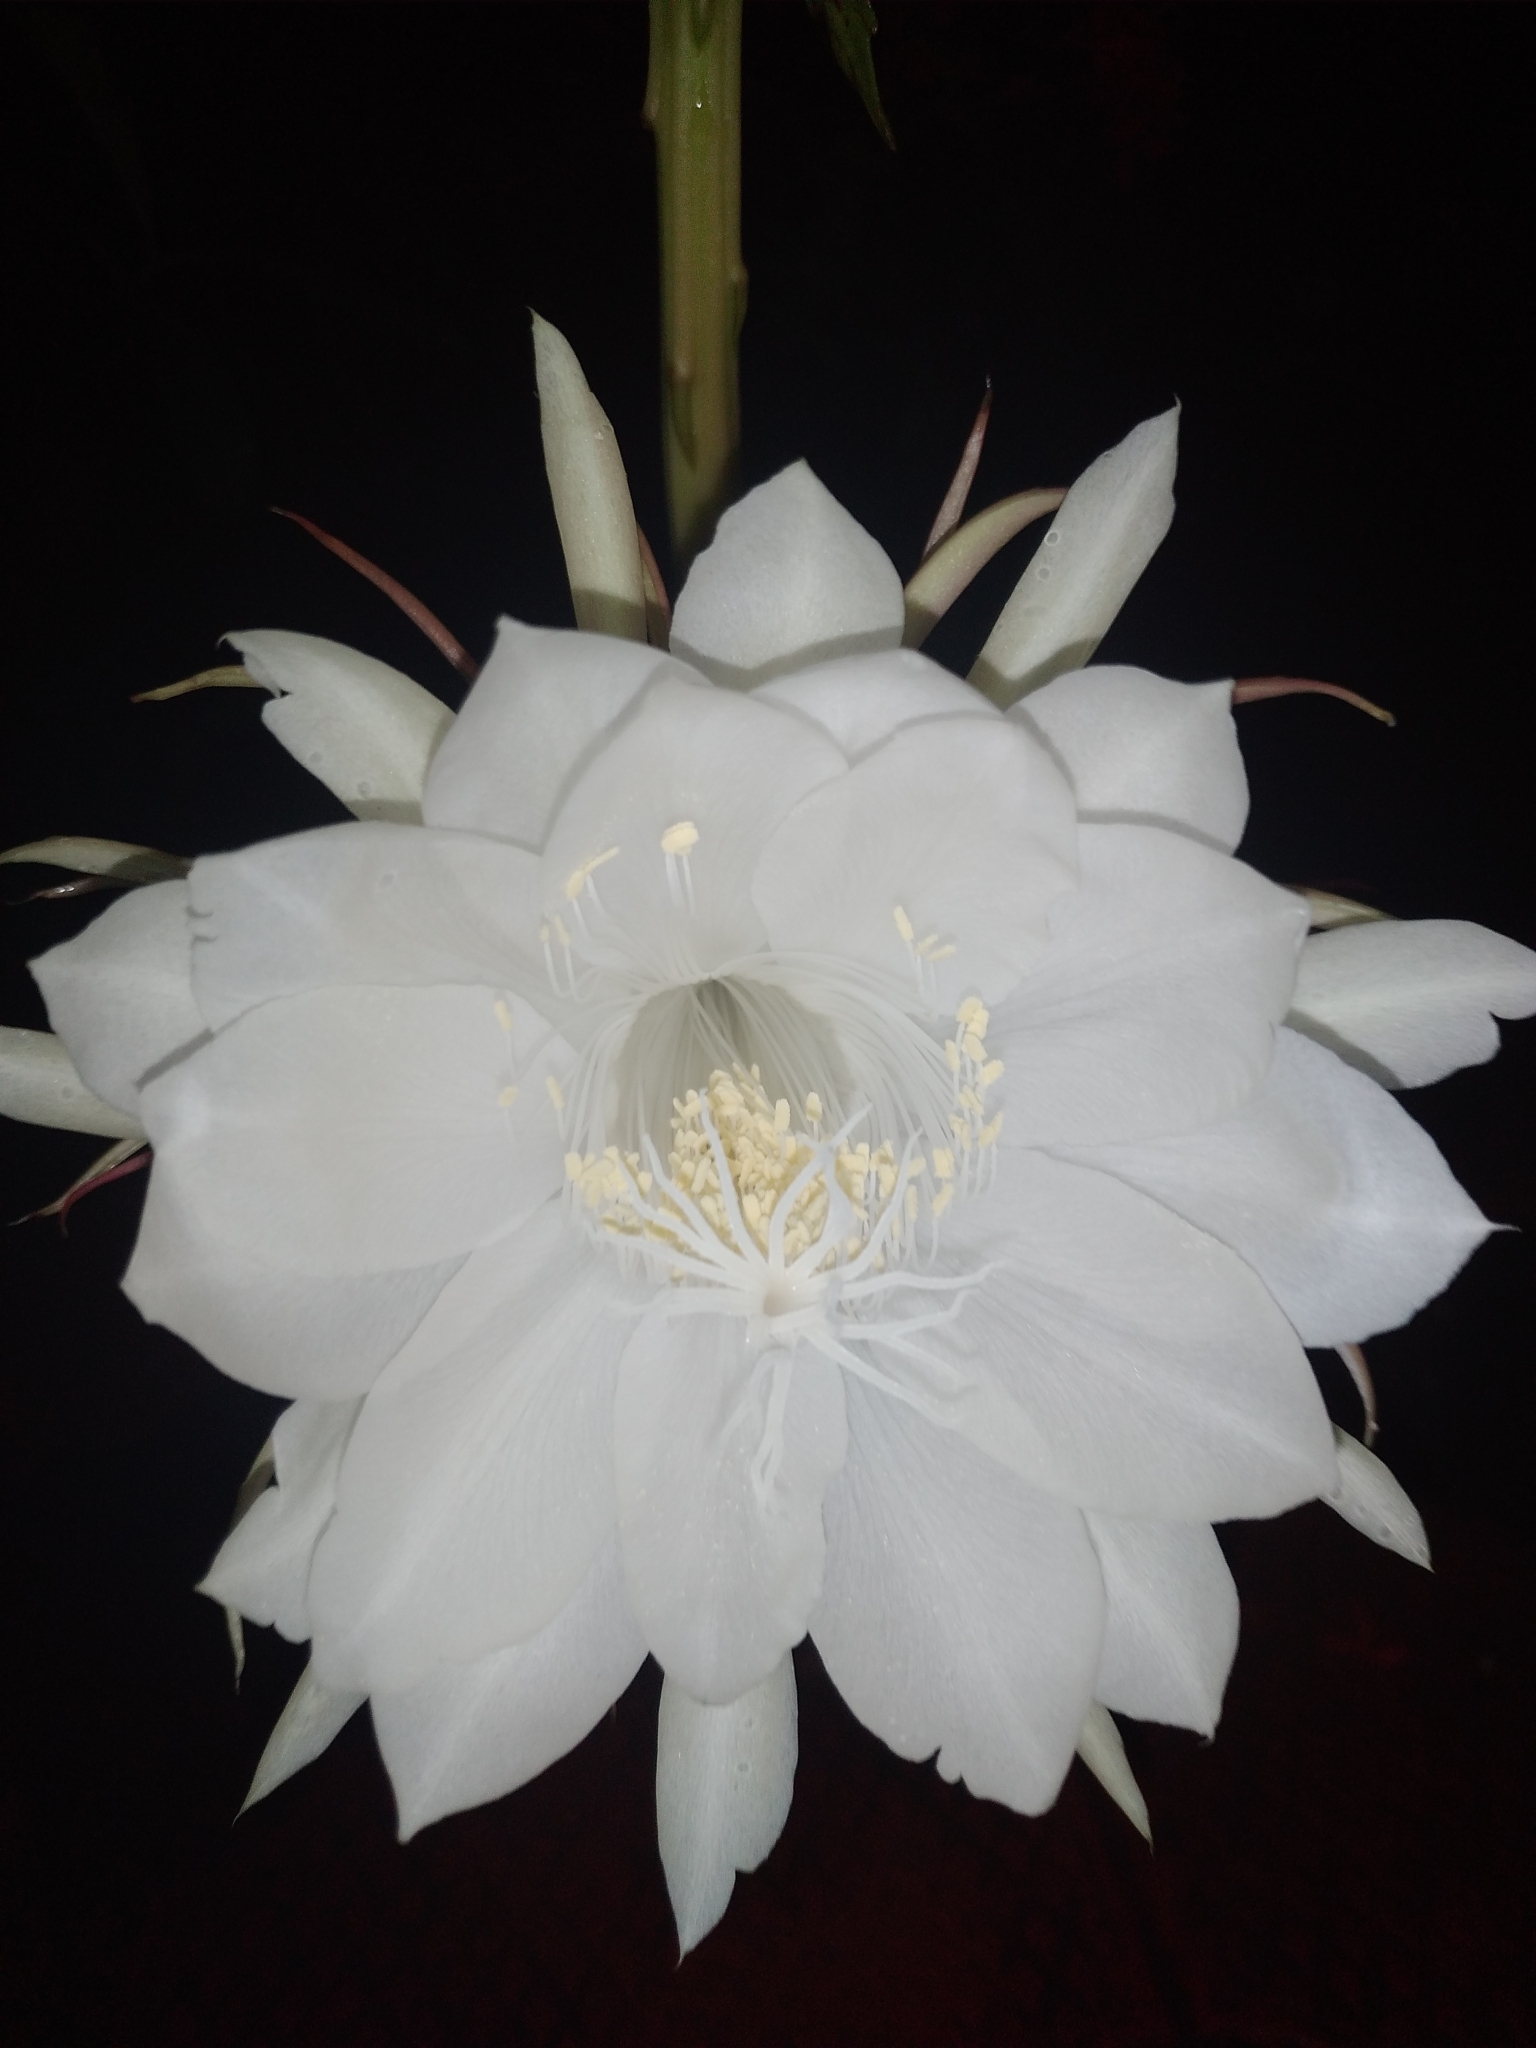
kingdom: Plantae
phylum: Tracheophyta
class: Magnoliopsida
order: Caryophyllales
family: Cactaceae
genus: Epiphyllum
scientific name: Epiphyllum oxypetalum
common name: Dutchman's pipe cactus
